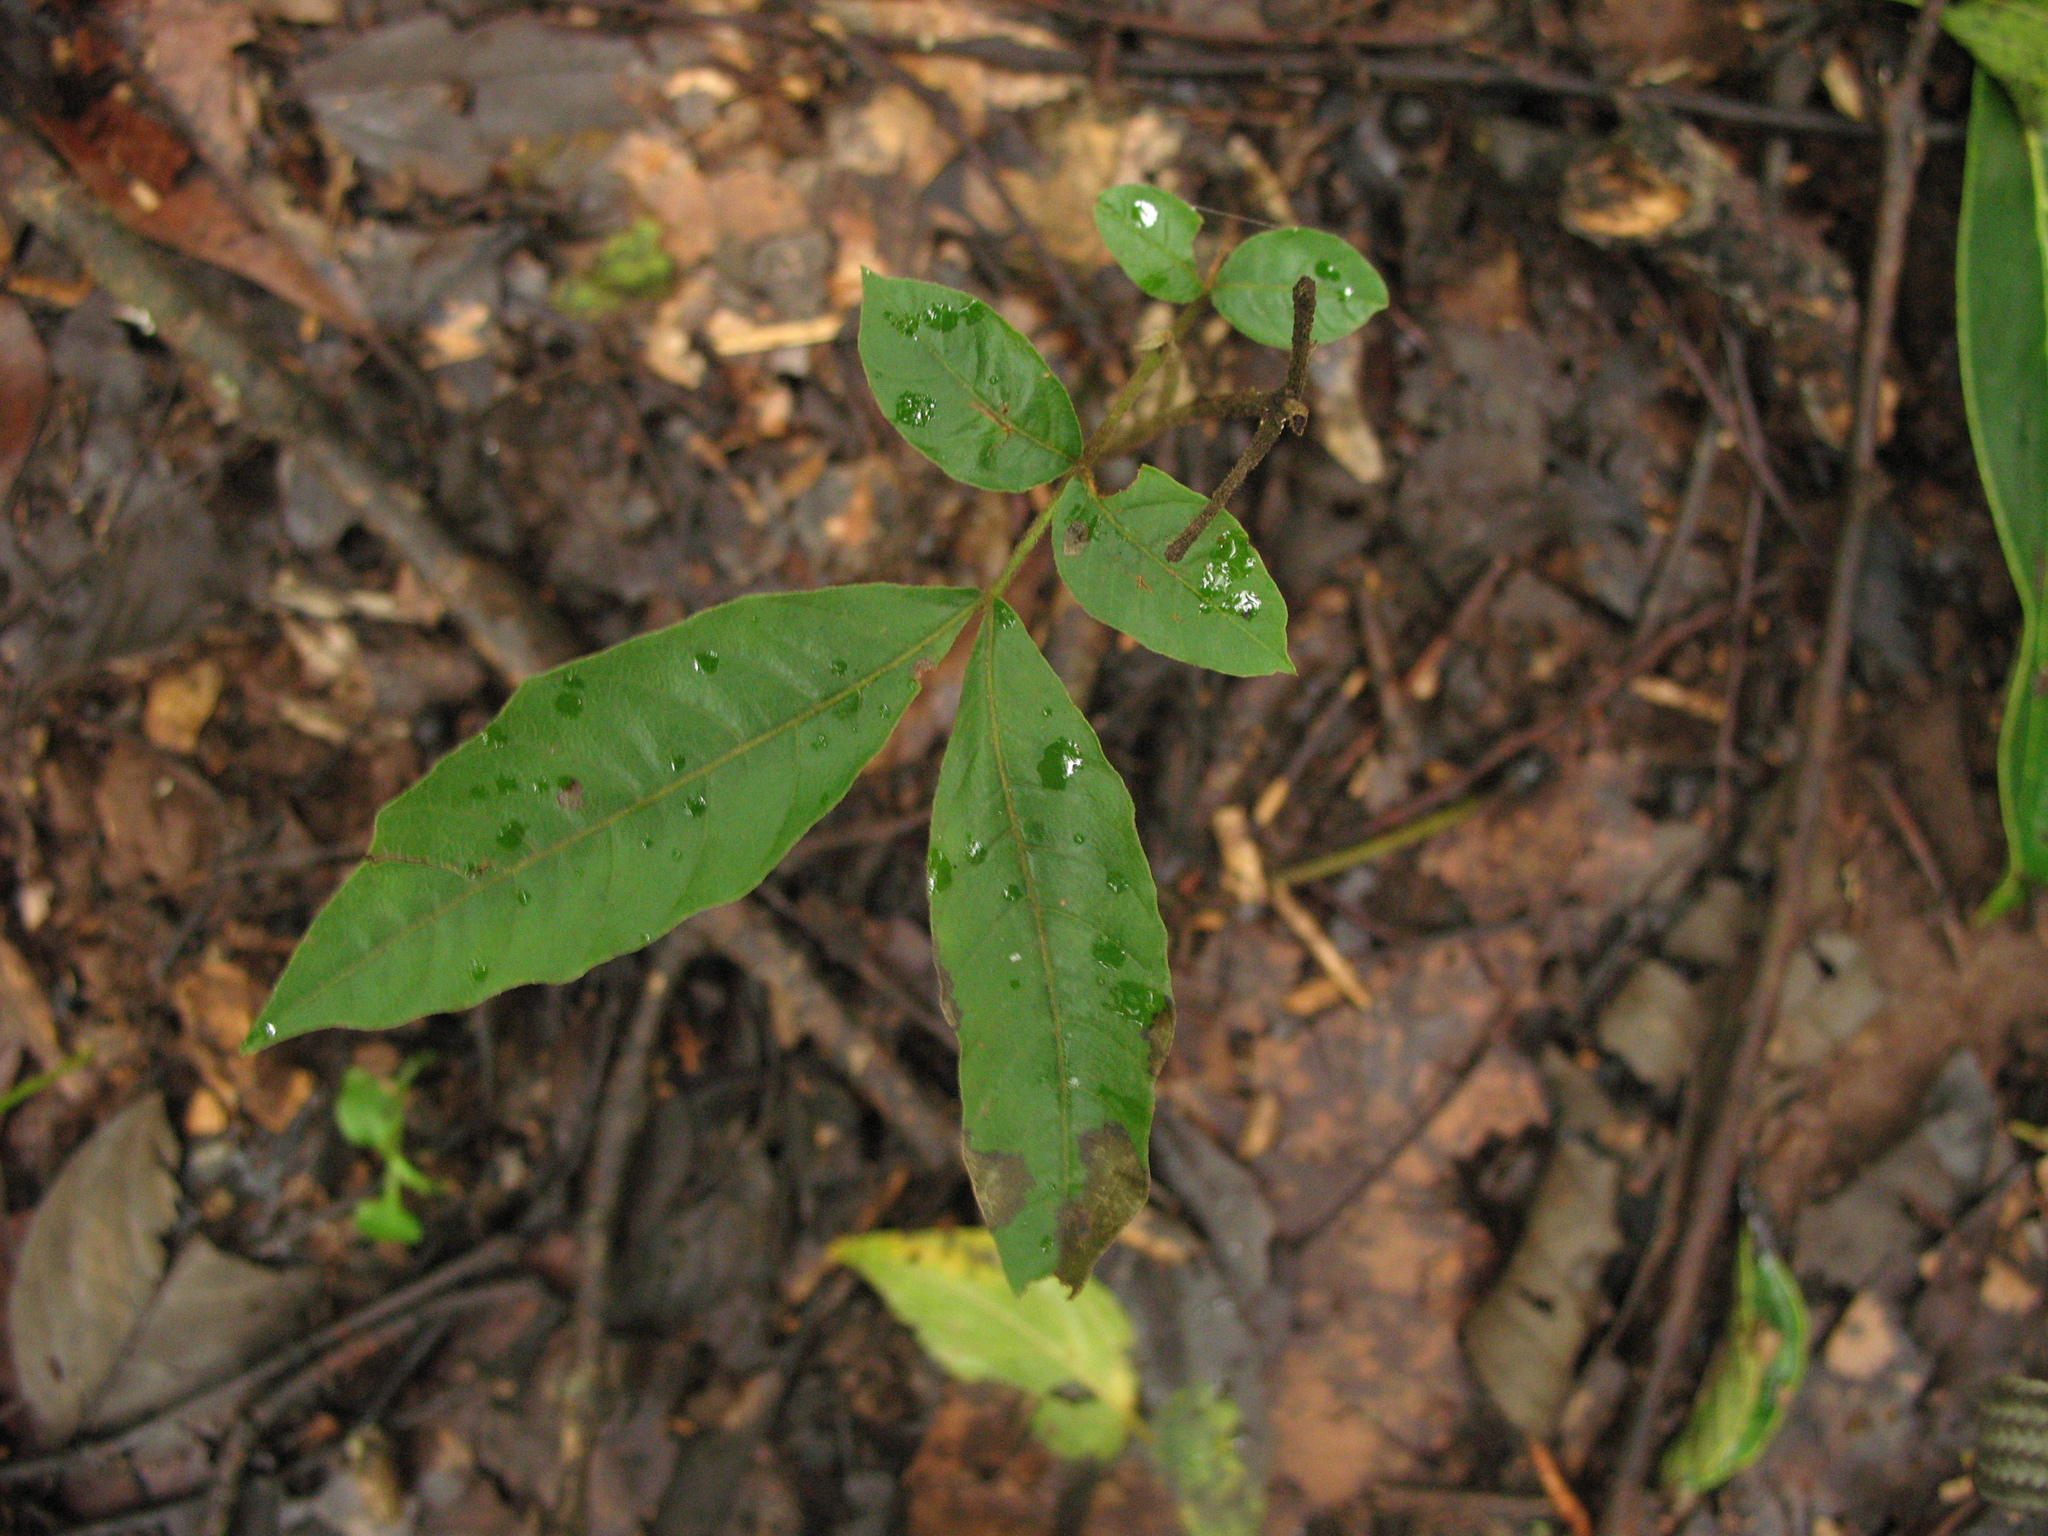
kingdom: Plantae
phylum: Tracheophyta
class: Magnoliopsida
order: Sapindales
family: Sapindaceae
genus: Schleichera
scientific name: Schleichera oleosa
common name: Malay lactree
